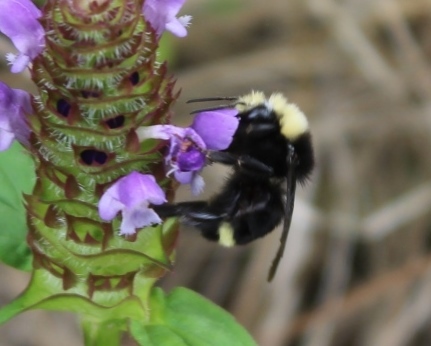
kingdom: Animalia
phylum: Arthropoda
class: Insecta
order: Hymenoptera
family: Apidae
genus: Bombus
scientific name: Bombus vosnesenskii
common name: Vosnesensky bumble bee
